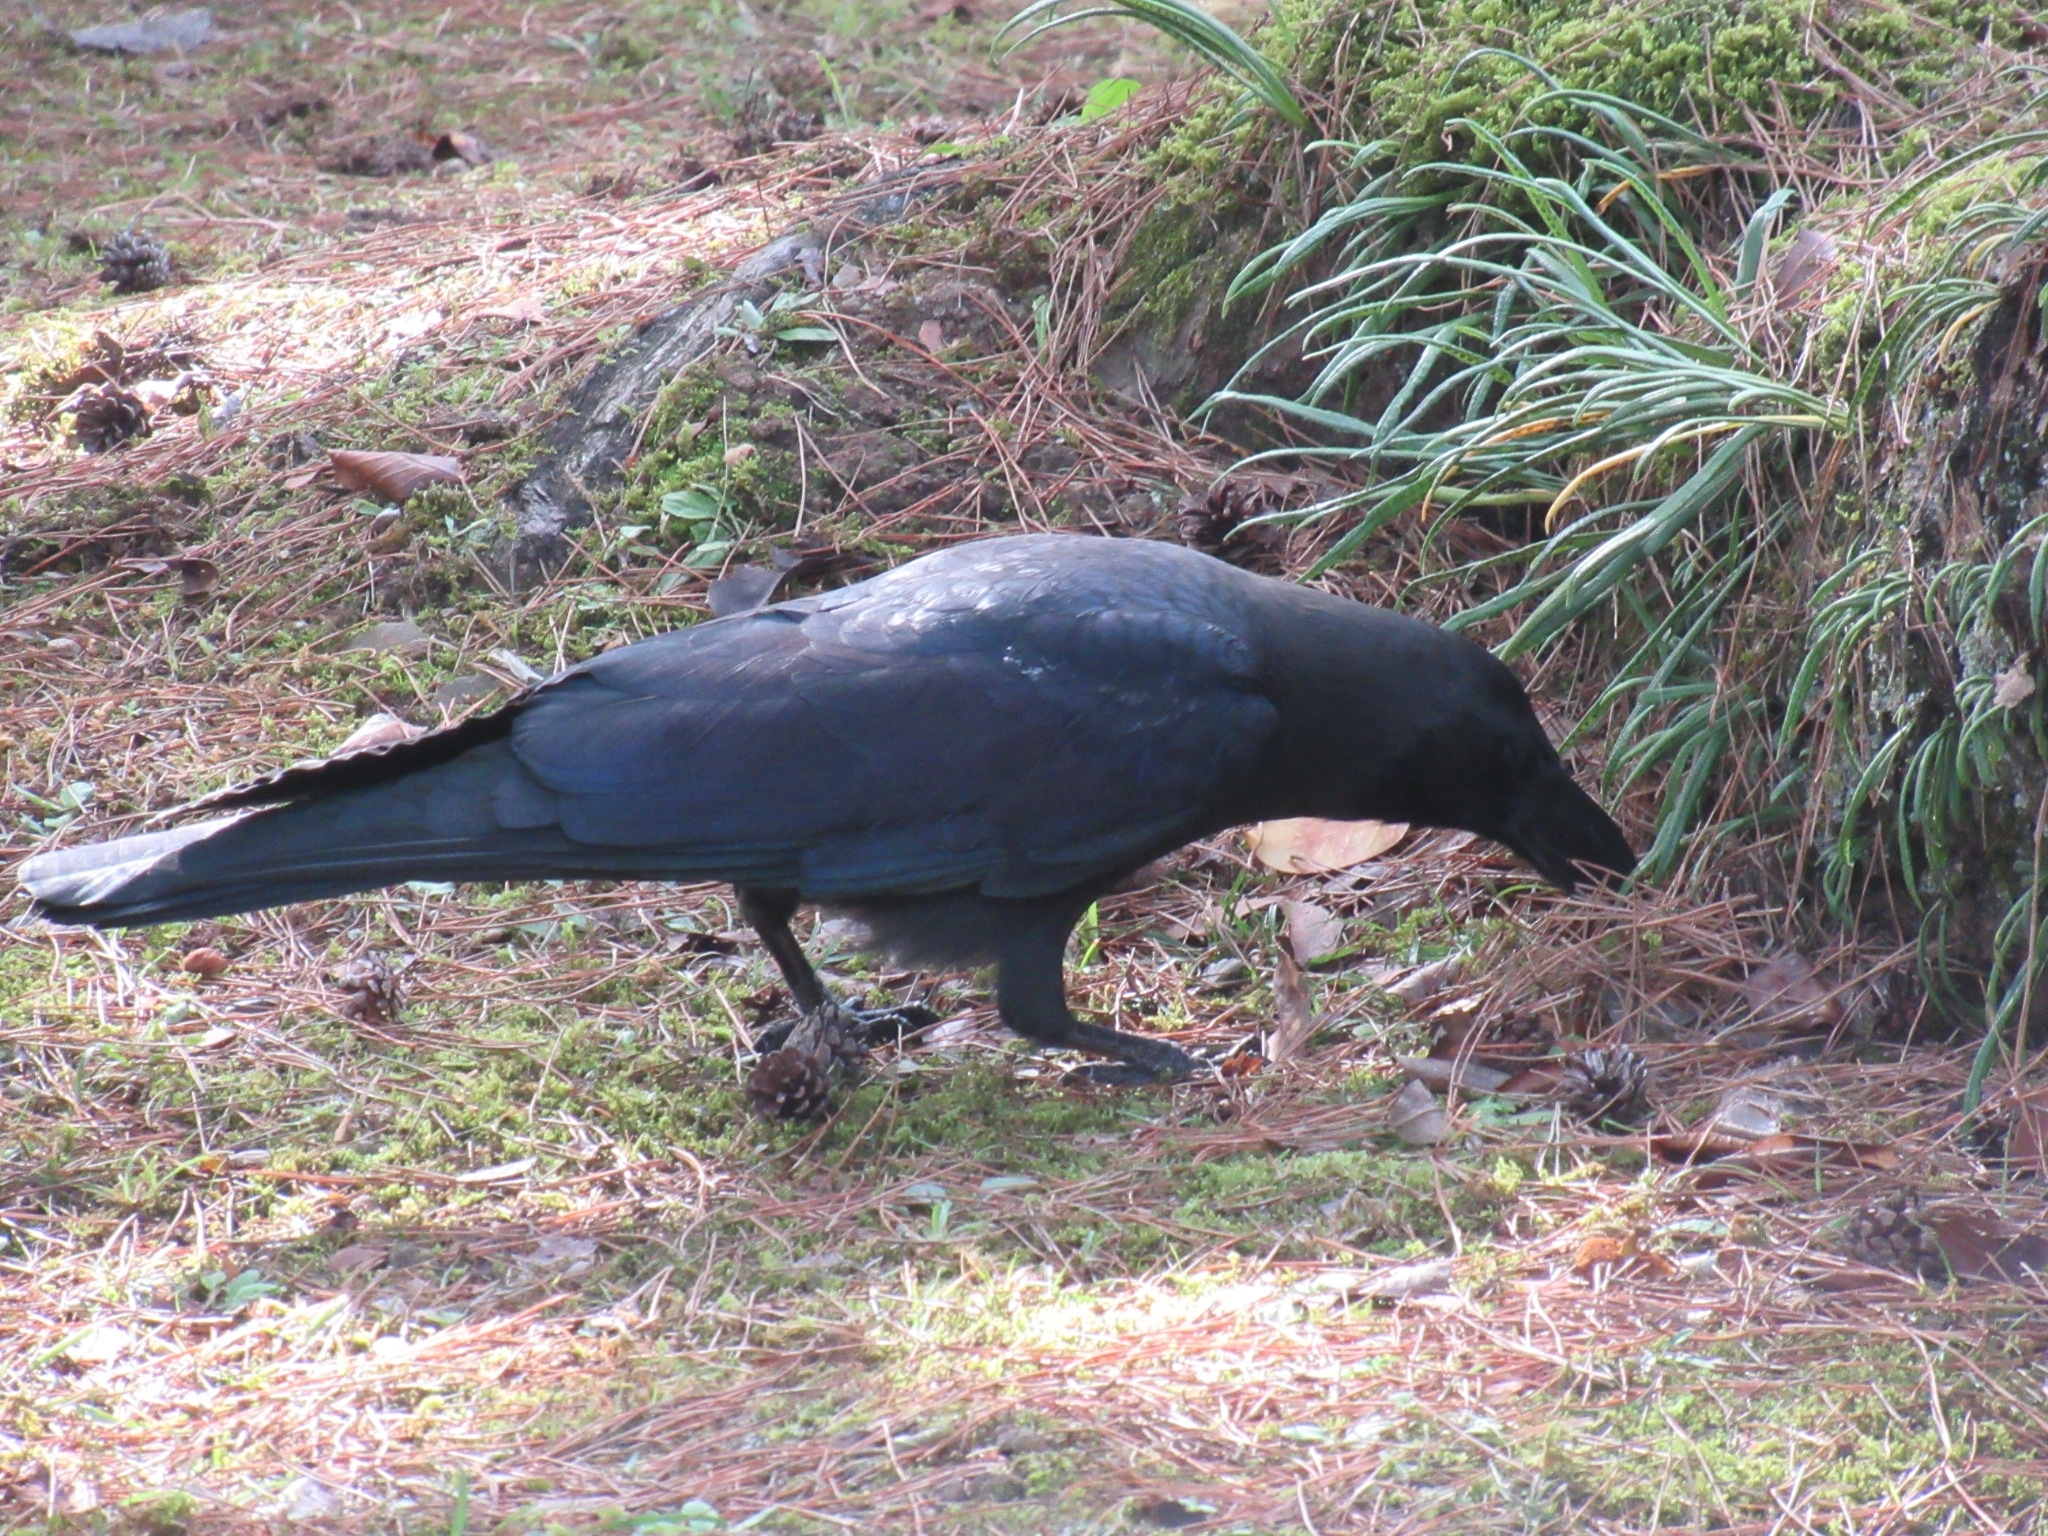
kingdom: Animalia
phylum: Chordata
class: Aves
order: Passeriformes
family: Corvidae
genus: Corvus
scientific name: Corvus macrorhynchos
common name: Large-billed crow
